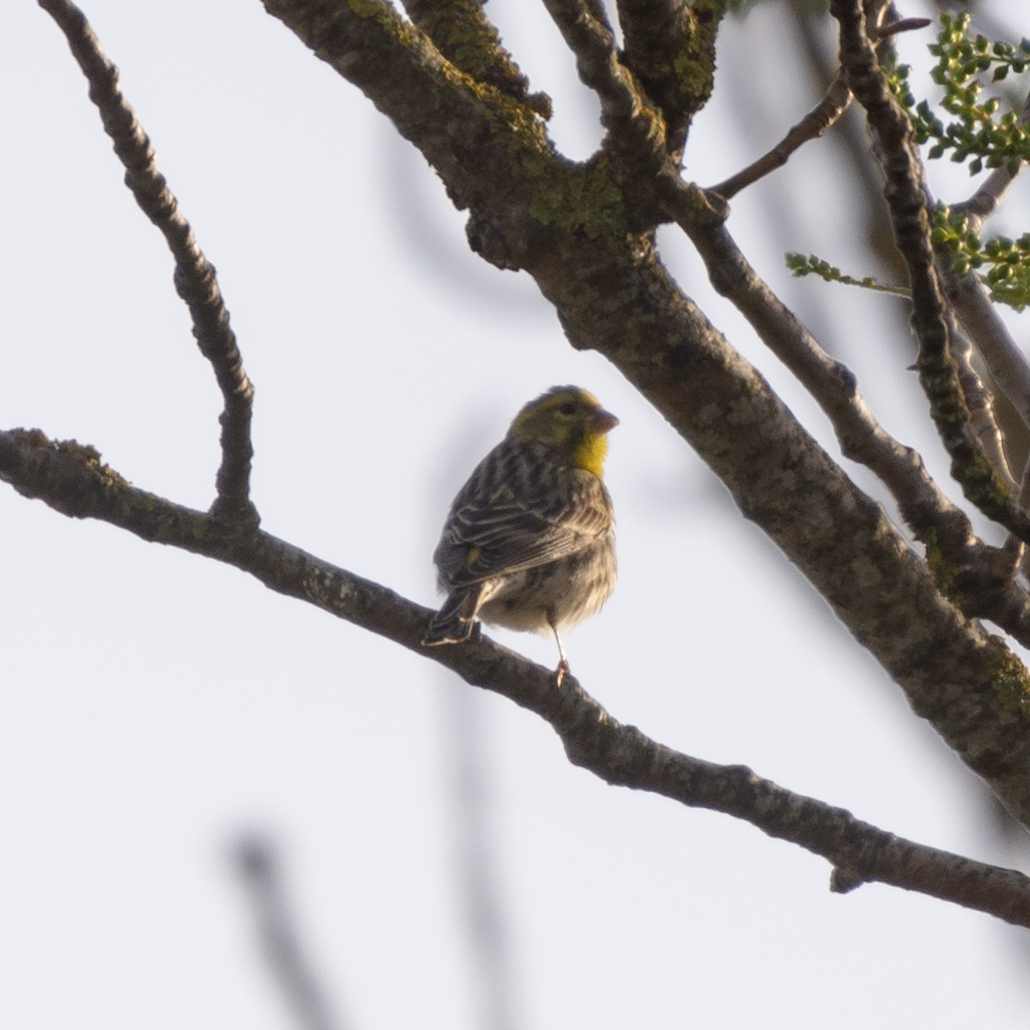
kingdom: Animalia
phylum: Chordata
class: Aves
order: Passeriformes
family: Fringillidae
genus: Serinus
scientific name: Serinus serinus
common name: European serin
